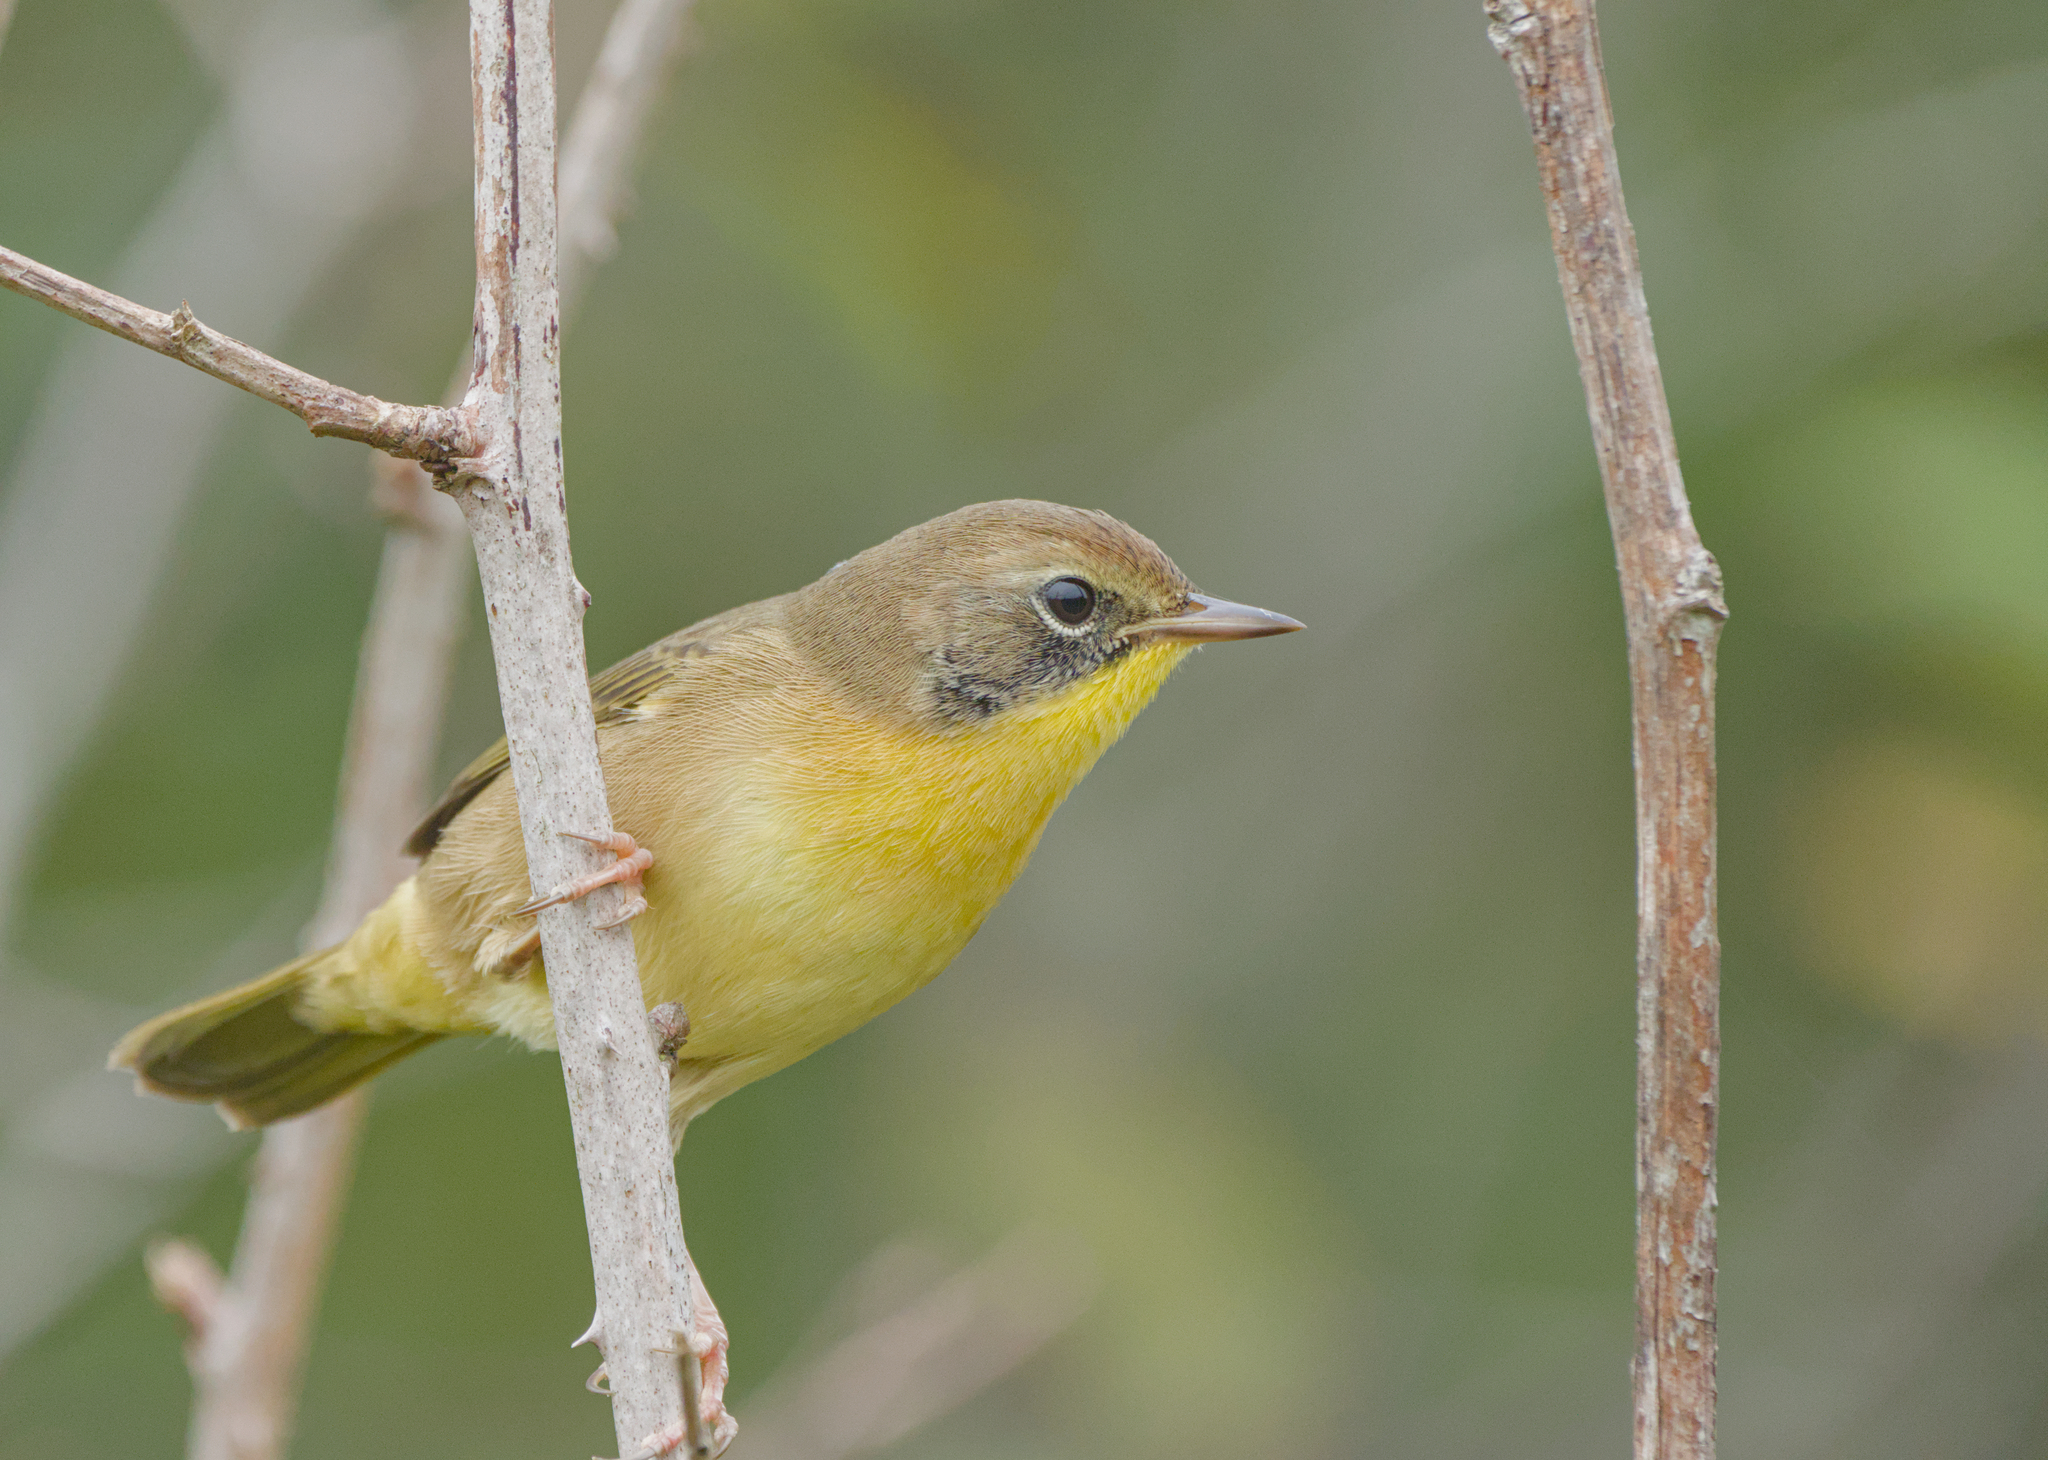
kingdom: Animalia
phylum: Chordata
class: Aves
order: Passeriformes
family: Parulidae
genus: Geothlypis
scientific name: Geothlypis trichas
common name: Common yellowthroat
